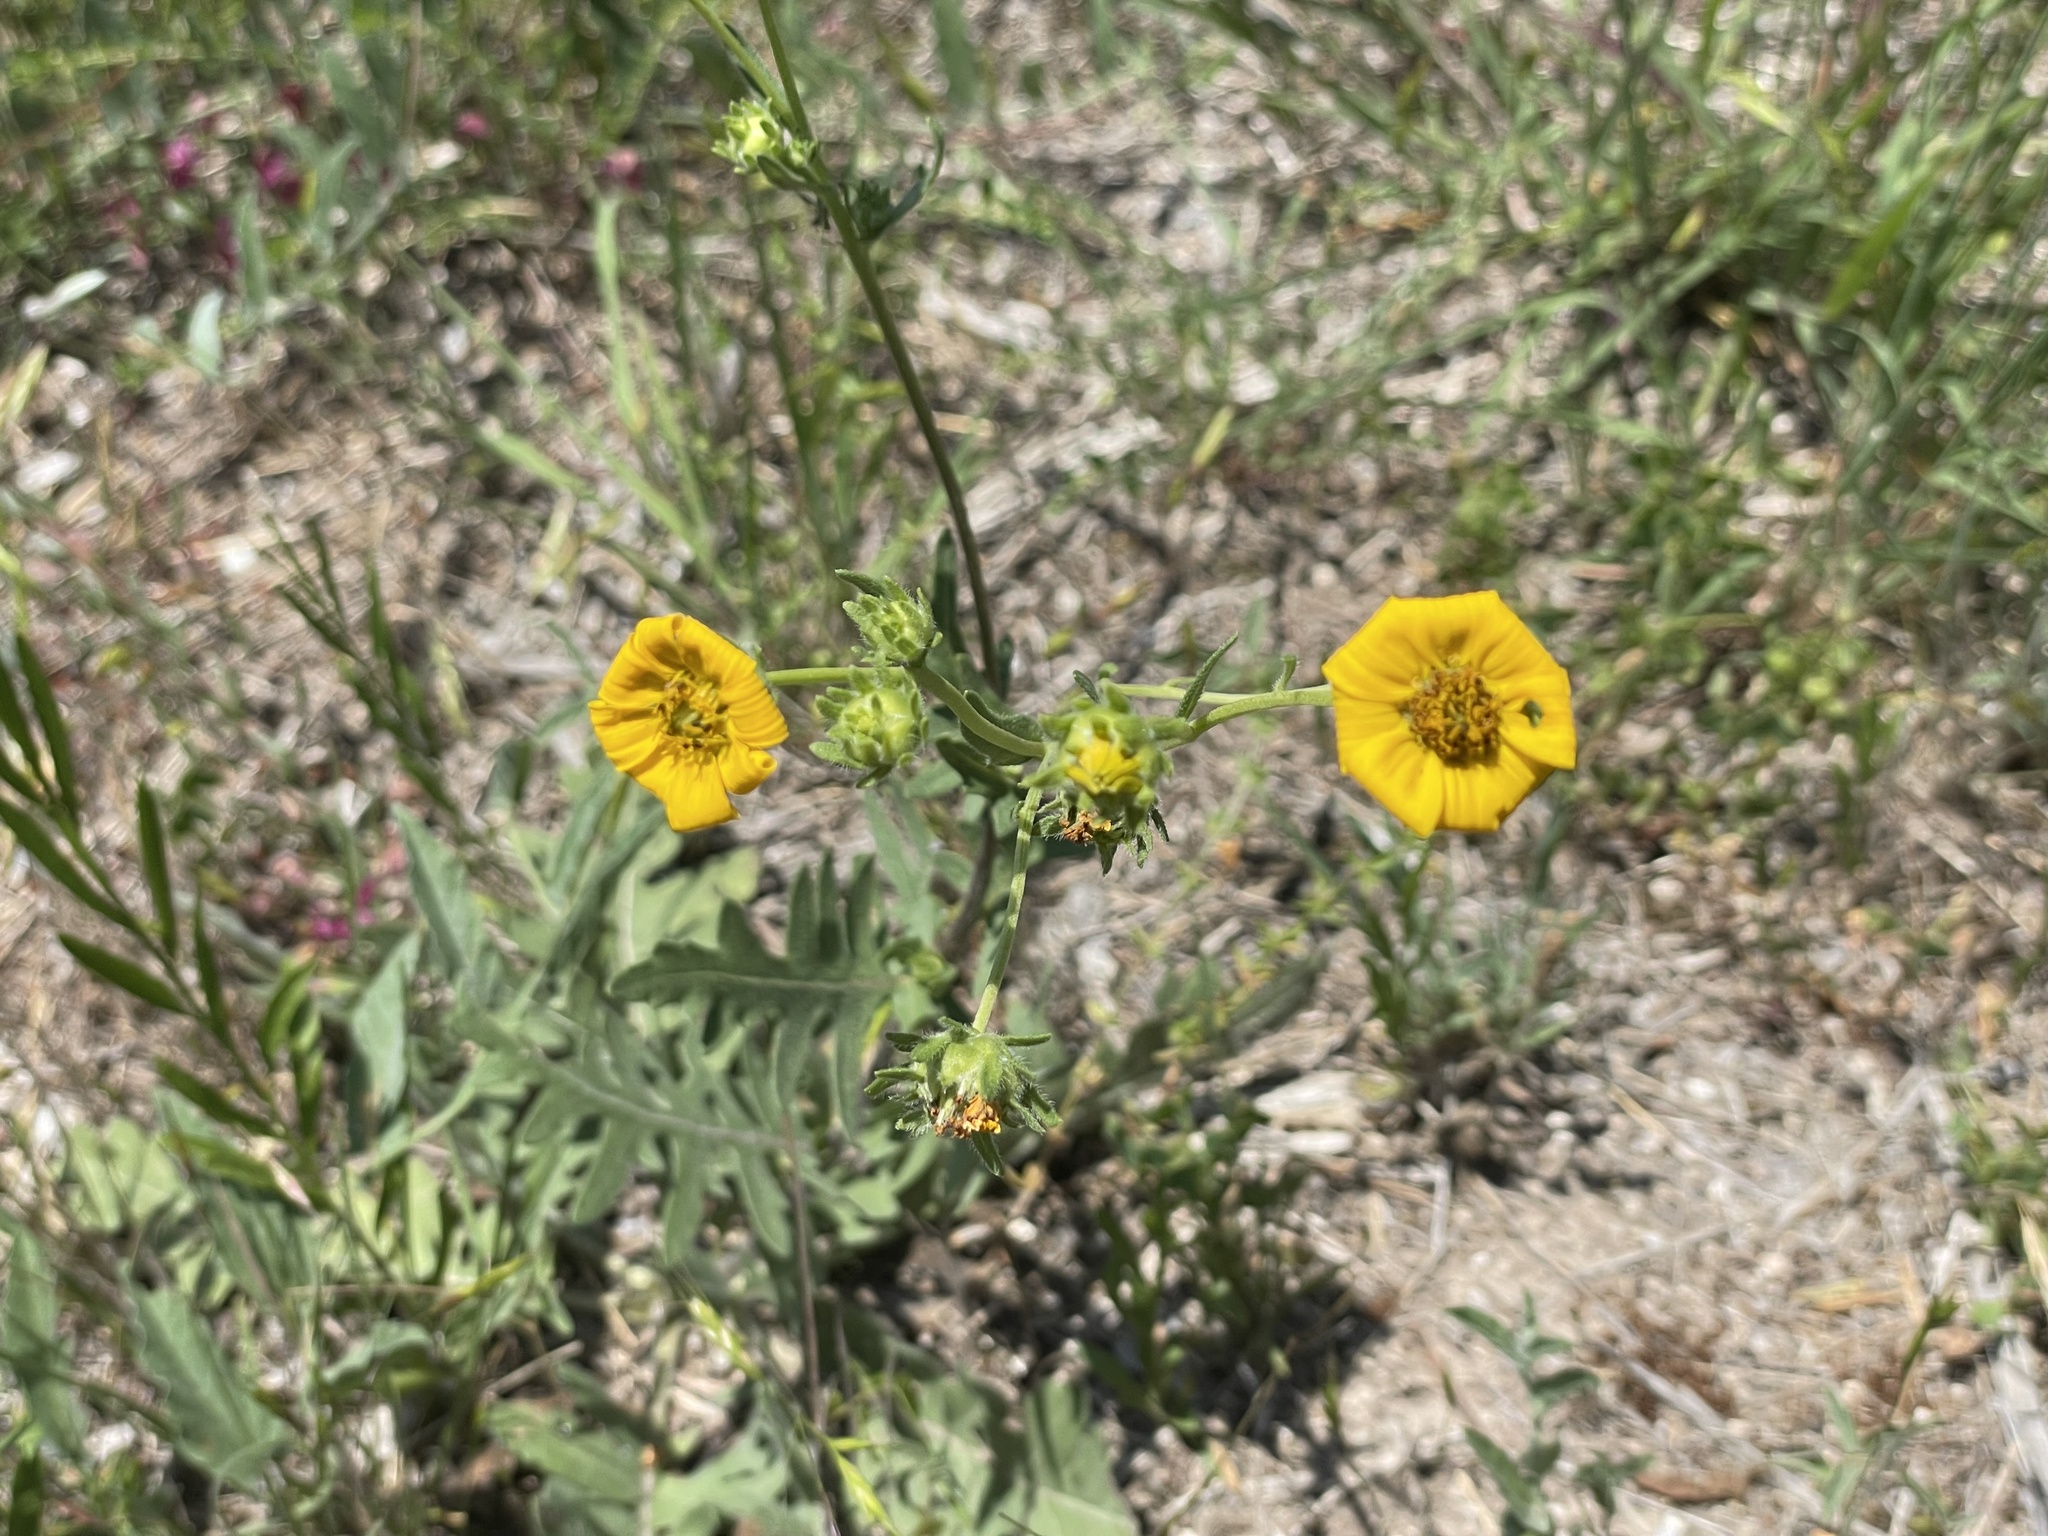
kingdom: Plantae
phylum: Tracheophyta
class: Magnoliopsida
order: Asterales
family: Asteraceae
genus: Engelmannia
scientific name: Engelmannia peristenia
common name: Engelmann's daisy
